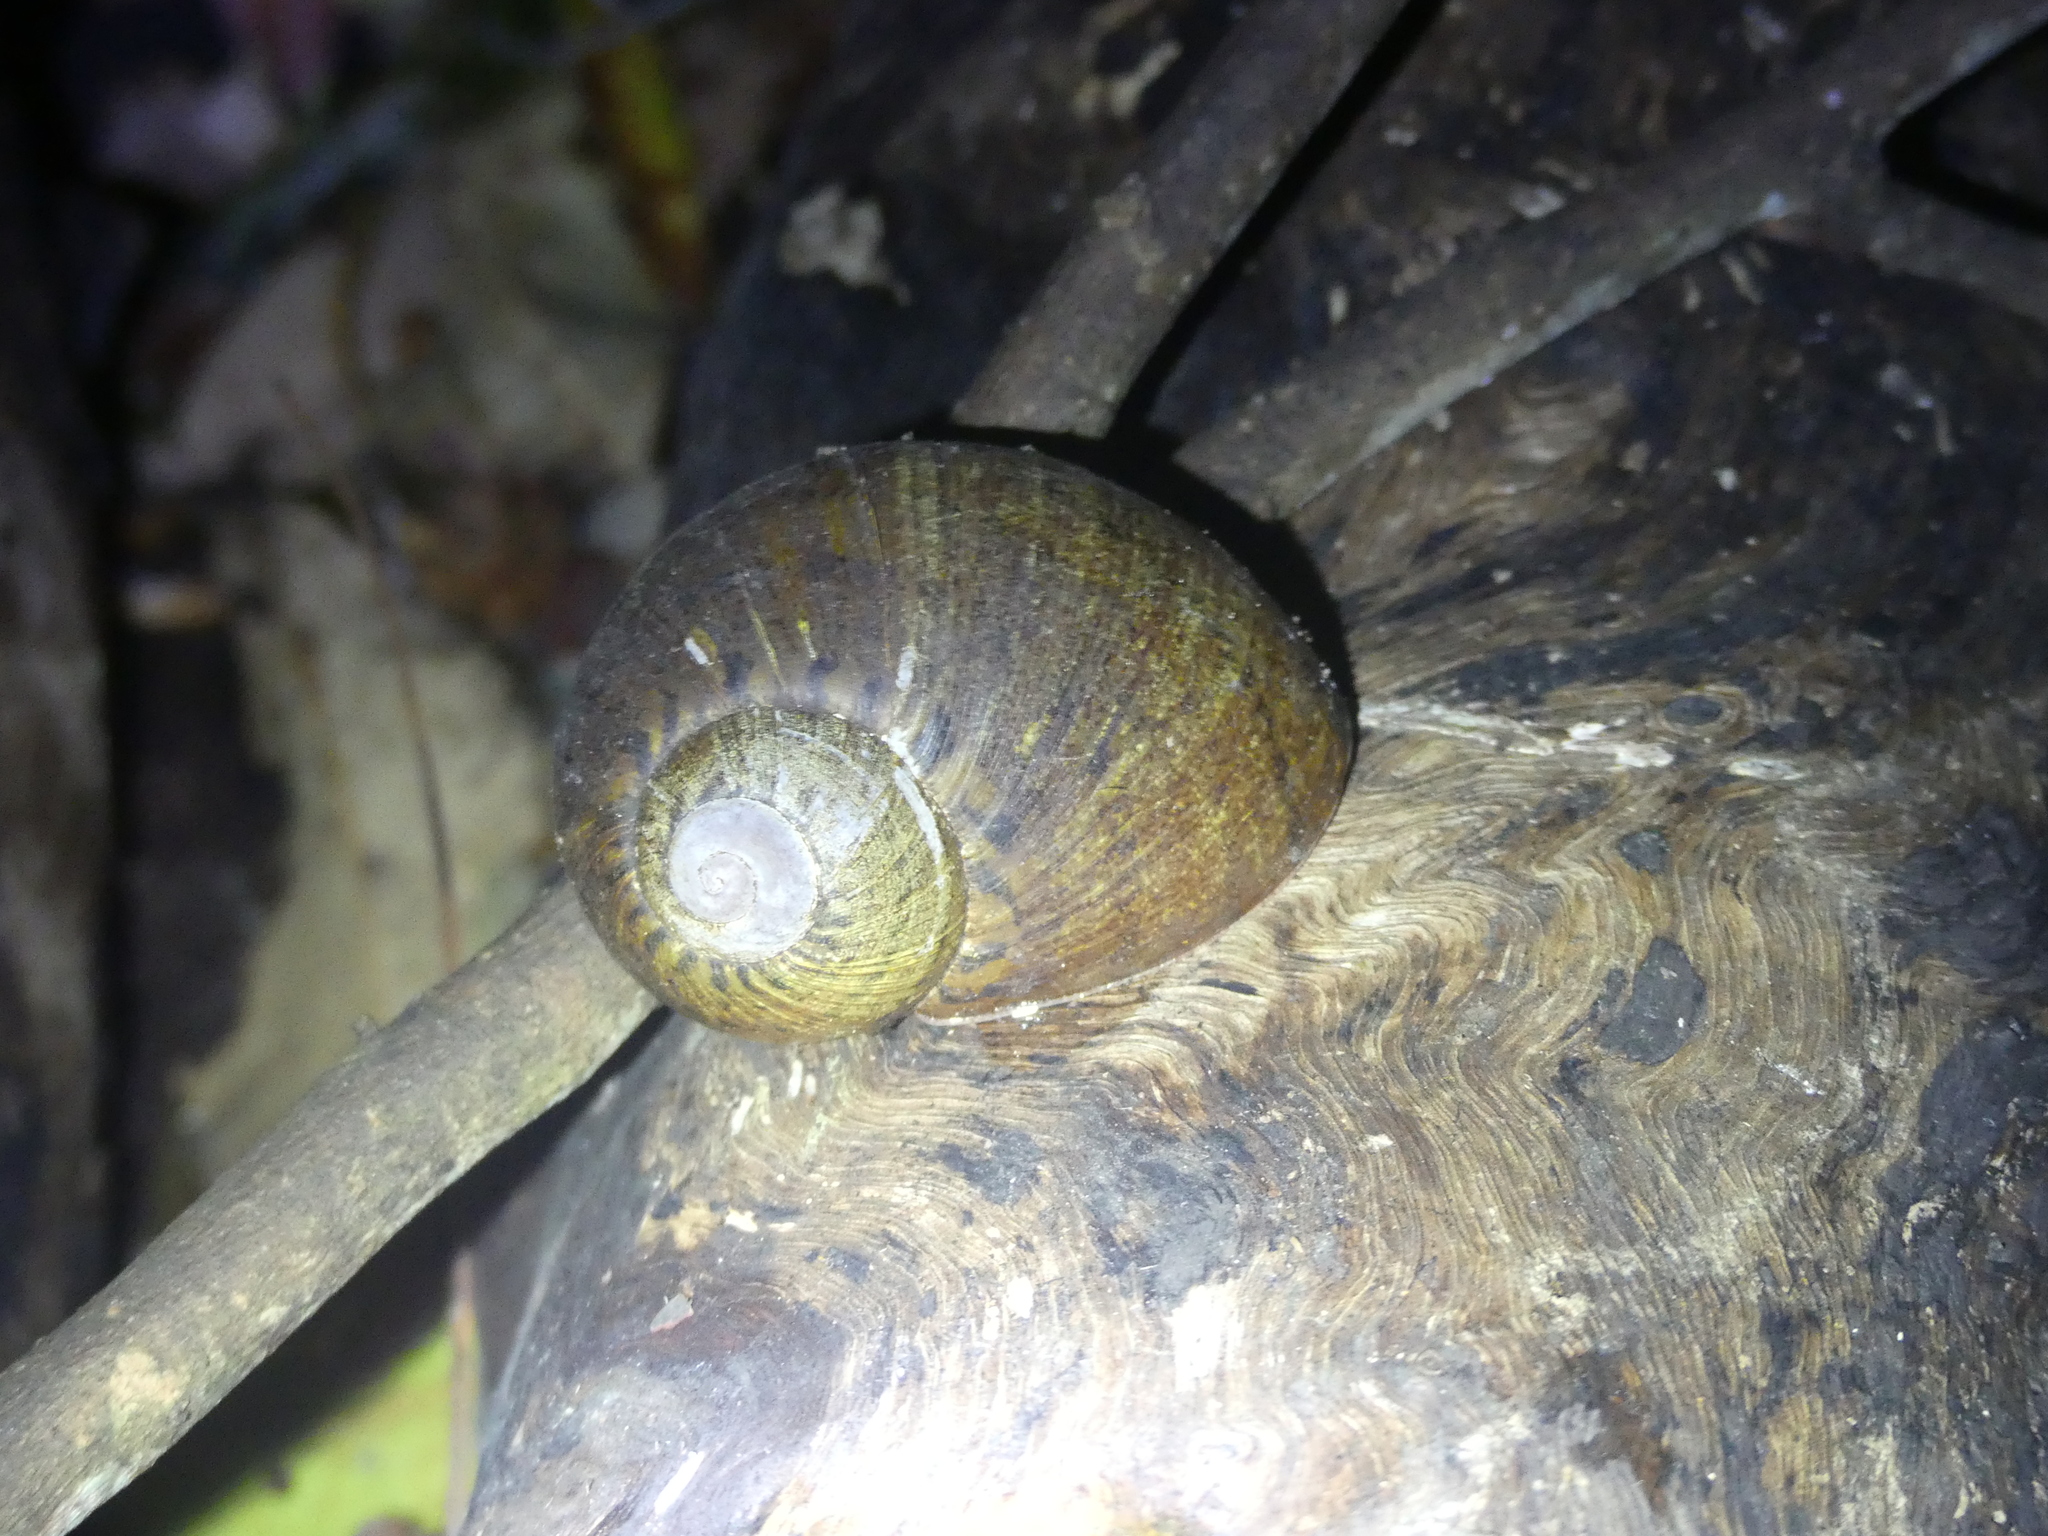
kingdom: Animalia
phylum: Mollusca
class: Gastropoda
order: Stylommatophora
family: Caryodidae
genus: Hedleyella
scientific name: Hedleyella falconeri
